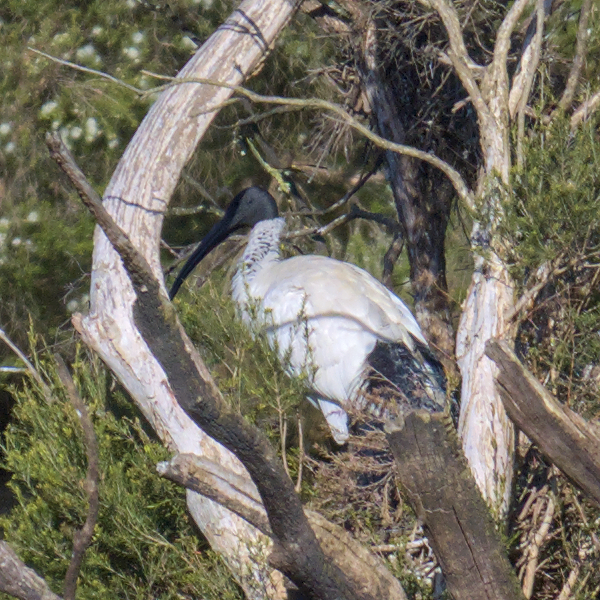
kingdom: Animalia
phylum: Chordata
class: Aves
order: Pelecaniformes
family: Threskiornithidae
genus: Threskiornis
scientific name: Threskiornis molucca
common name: Australian white ibis
